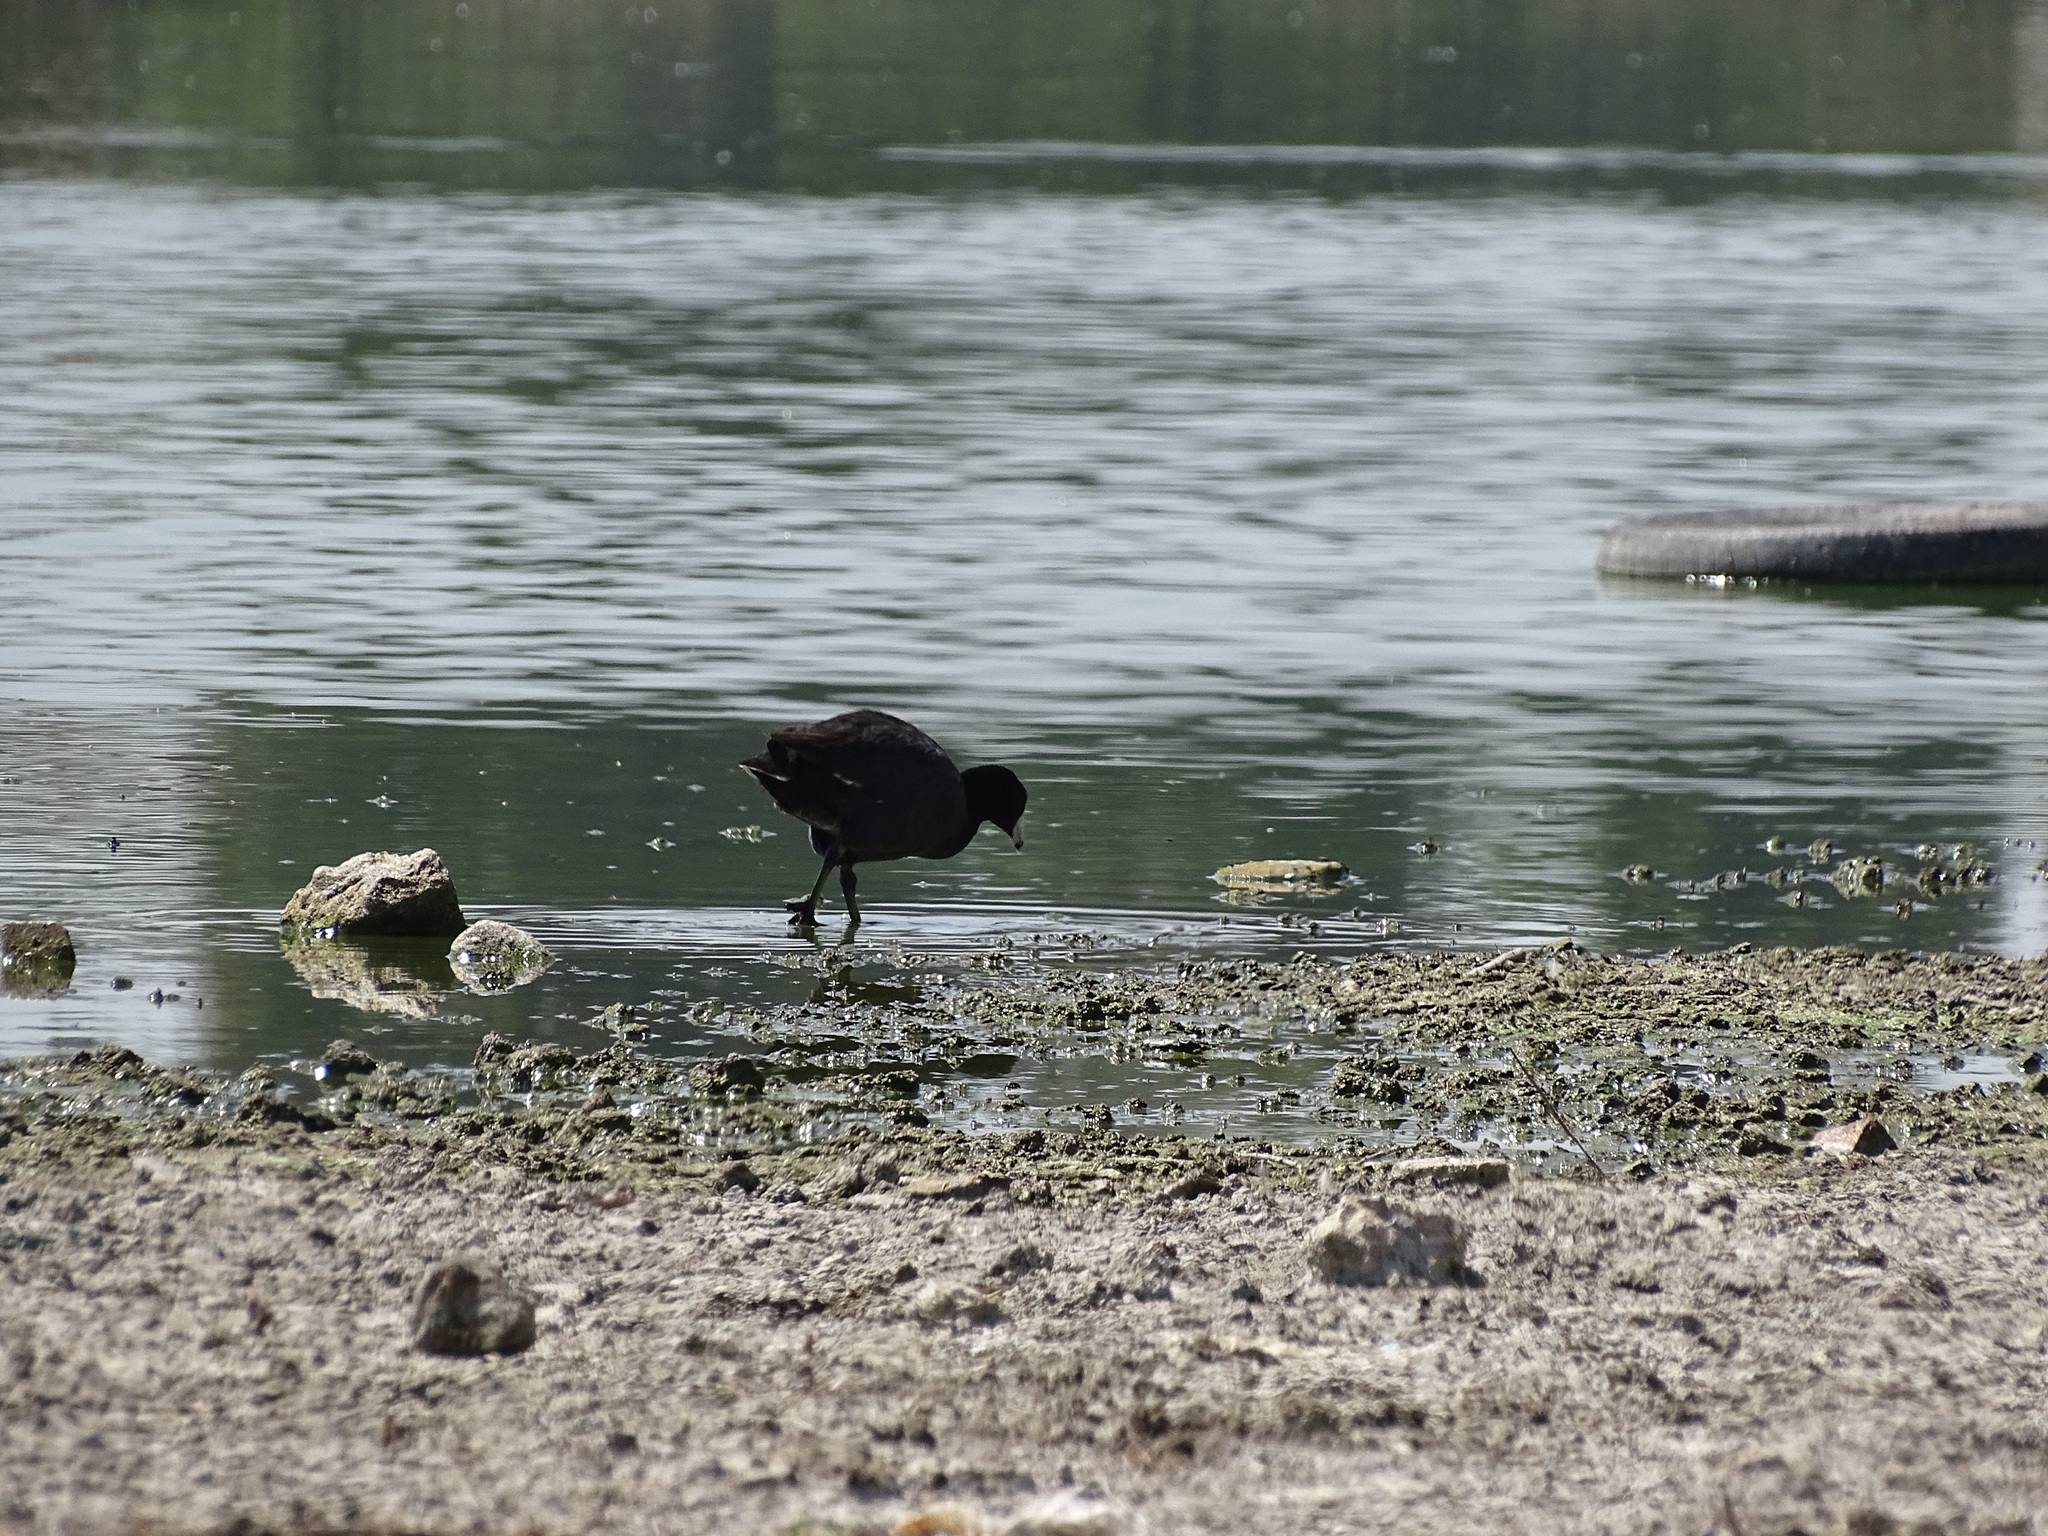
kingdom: Animalia
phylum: Chordata
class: Aves
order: Gruiformes
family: Rallidae
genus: Fulica
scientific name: Fulica americana
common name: American coot
